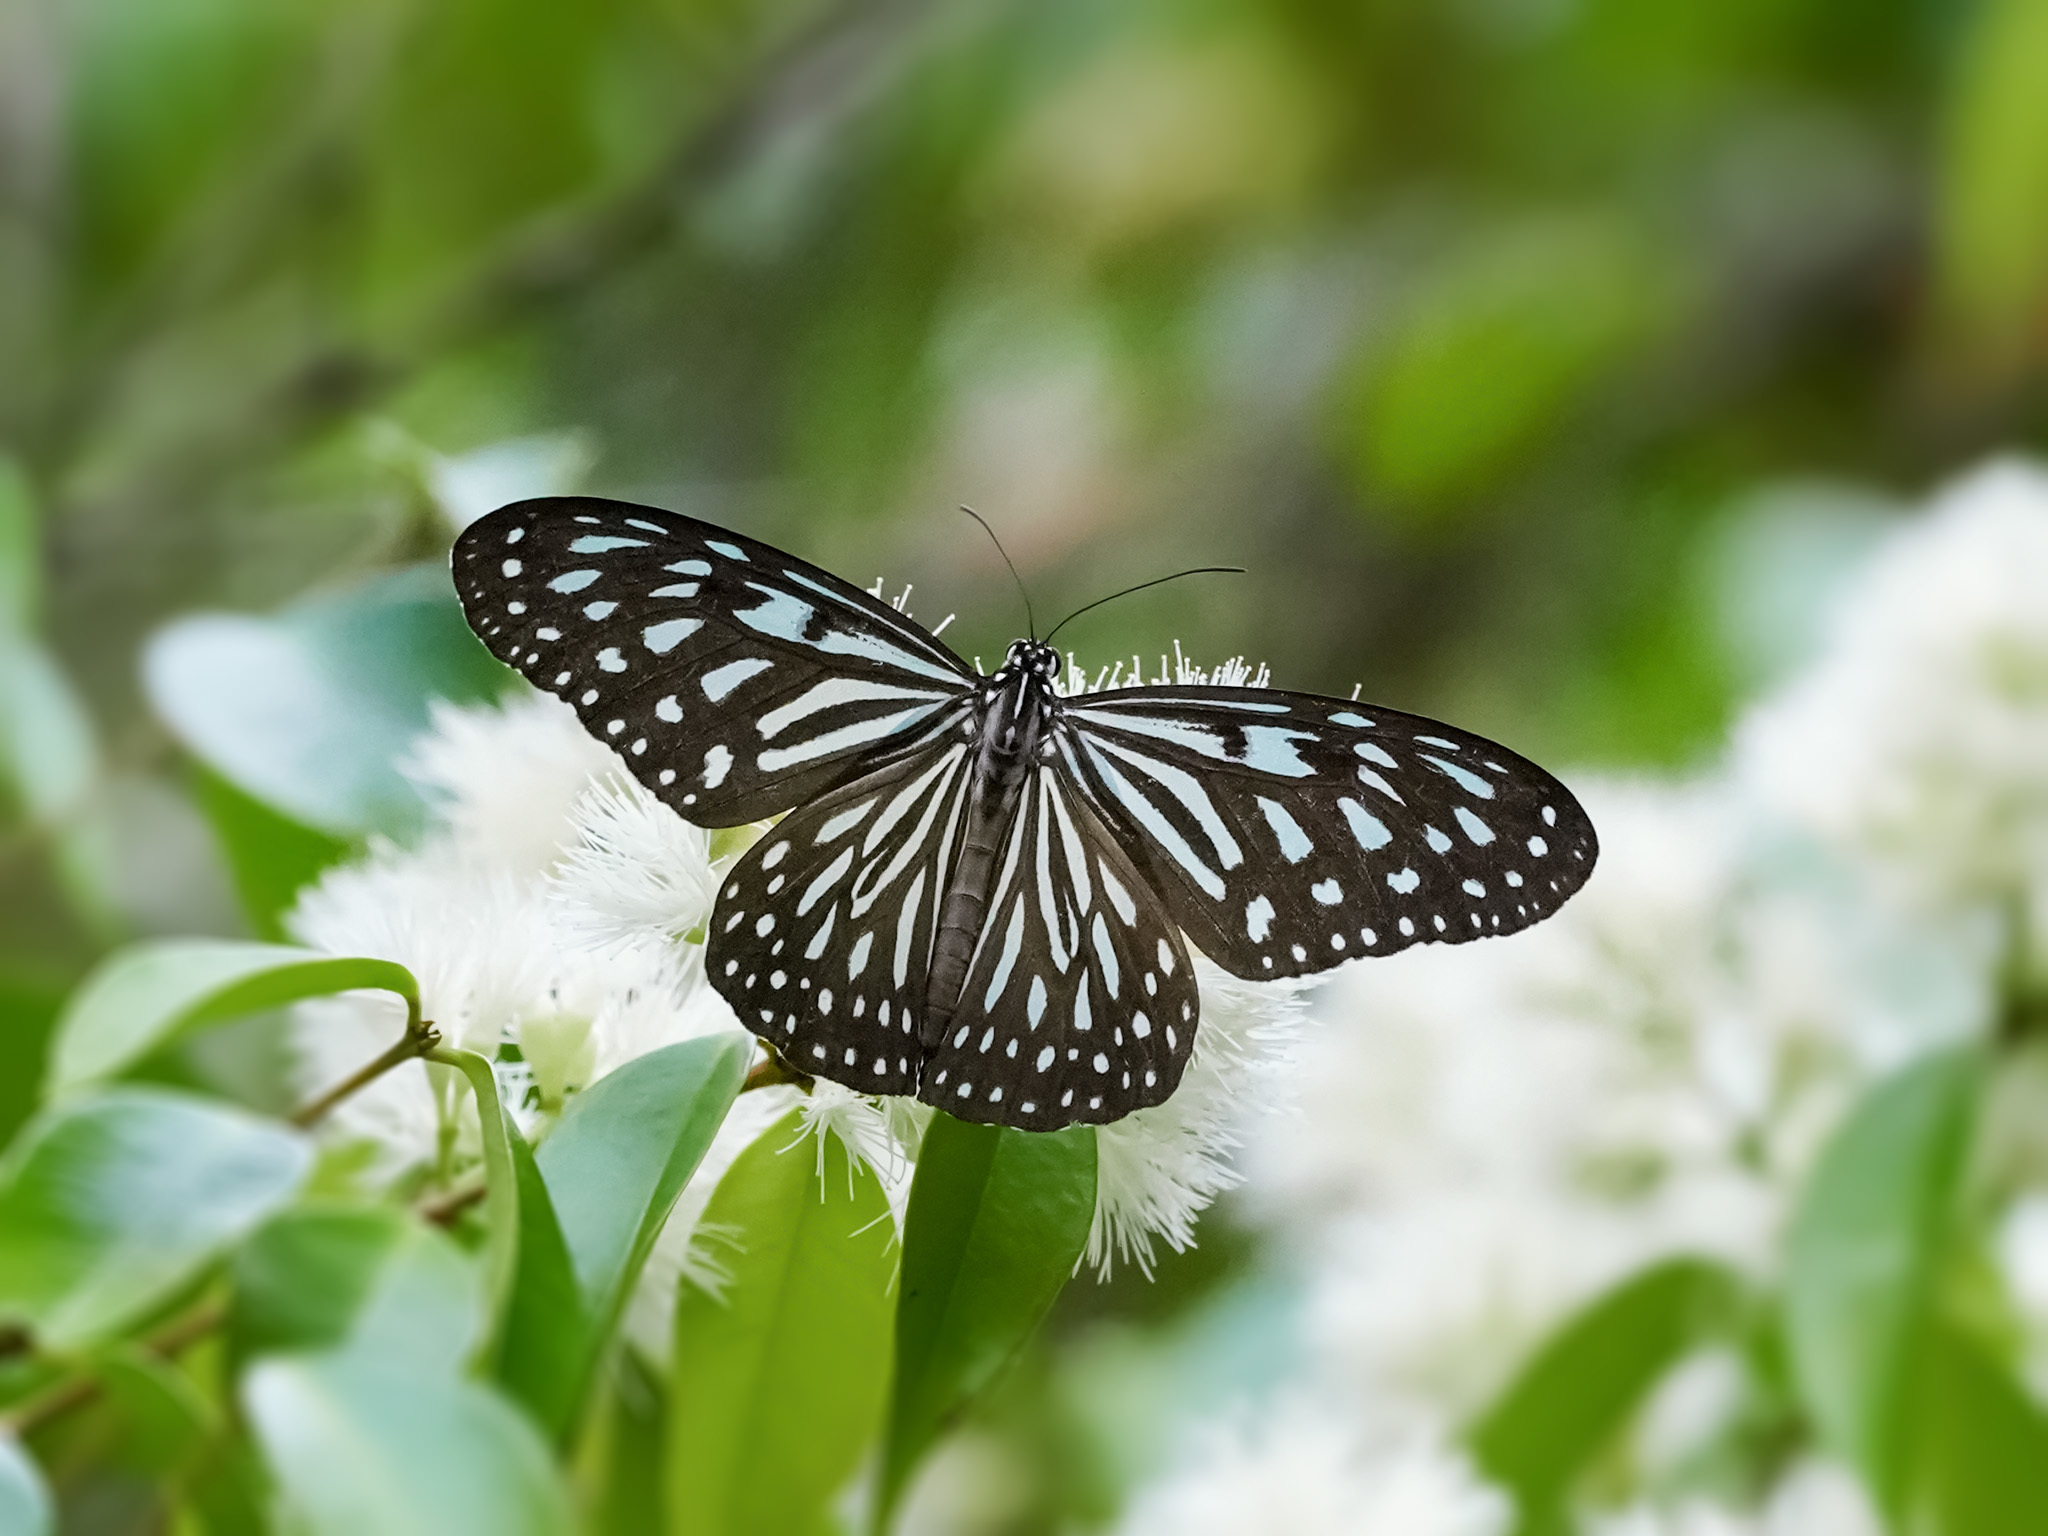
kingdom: Animalia
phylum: Arthropoda
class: Insecta
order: Lepidoptera
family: Nymphalidae
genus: Ideopsis
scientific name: Ideopsis vulgaris
